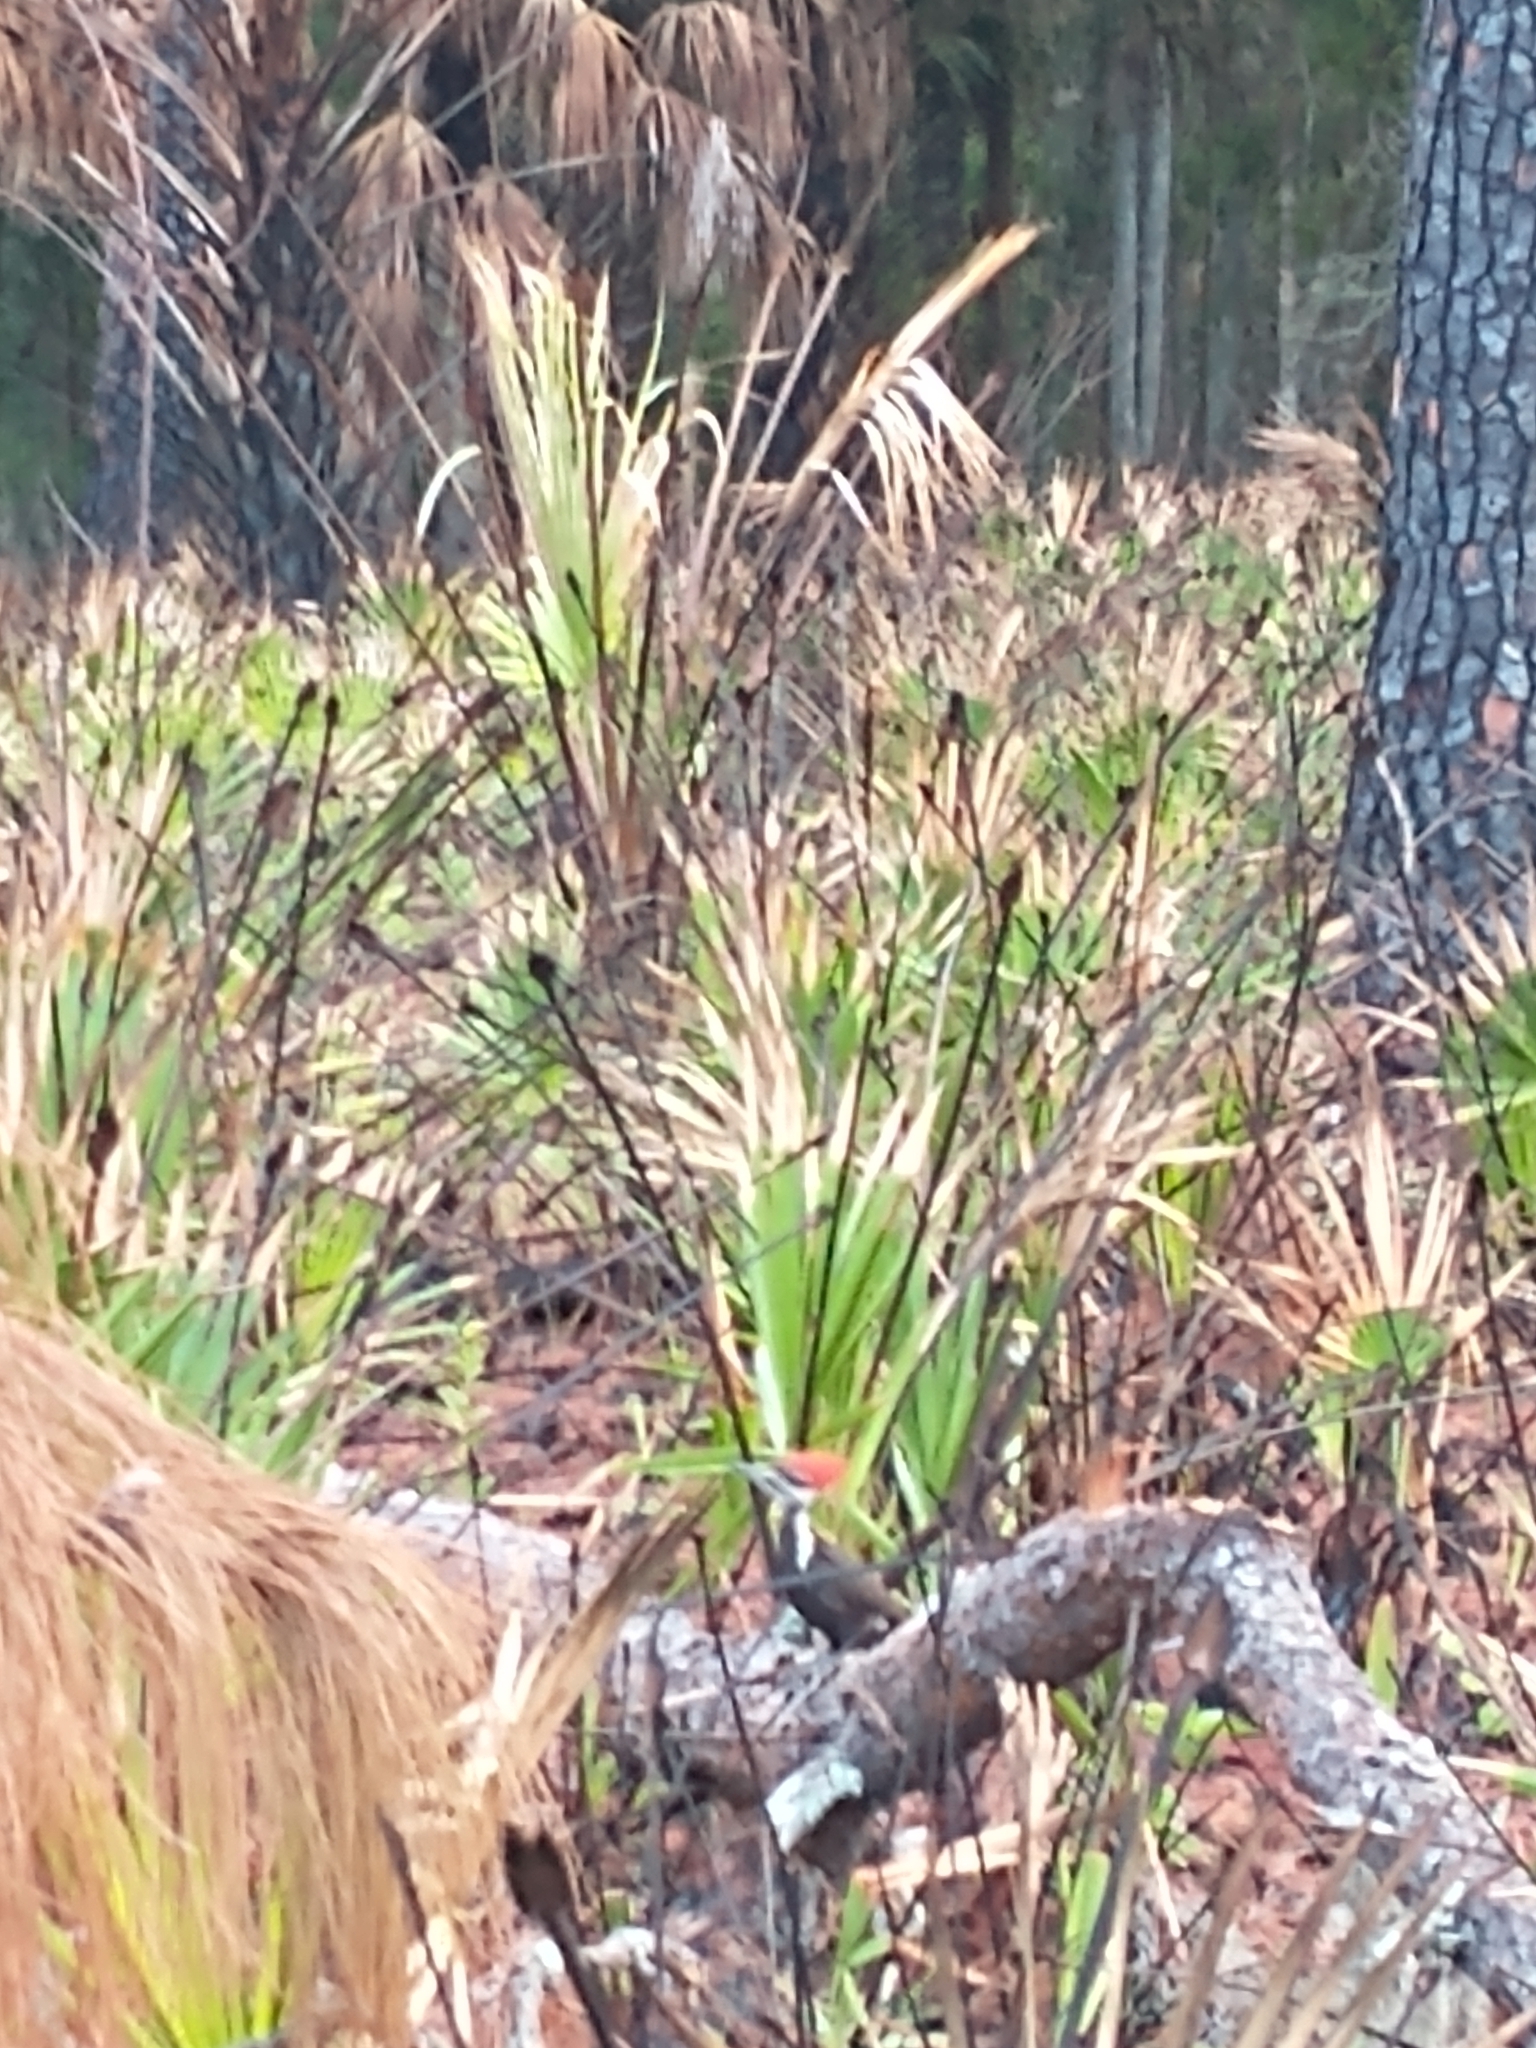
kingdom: Animalia
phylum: Chordata
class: Aves
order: Piciformes
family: Picidae
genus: Dryocopus
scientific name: Dryocopus pileatus
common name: Pileated woodpecker
